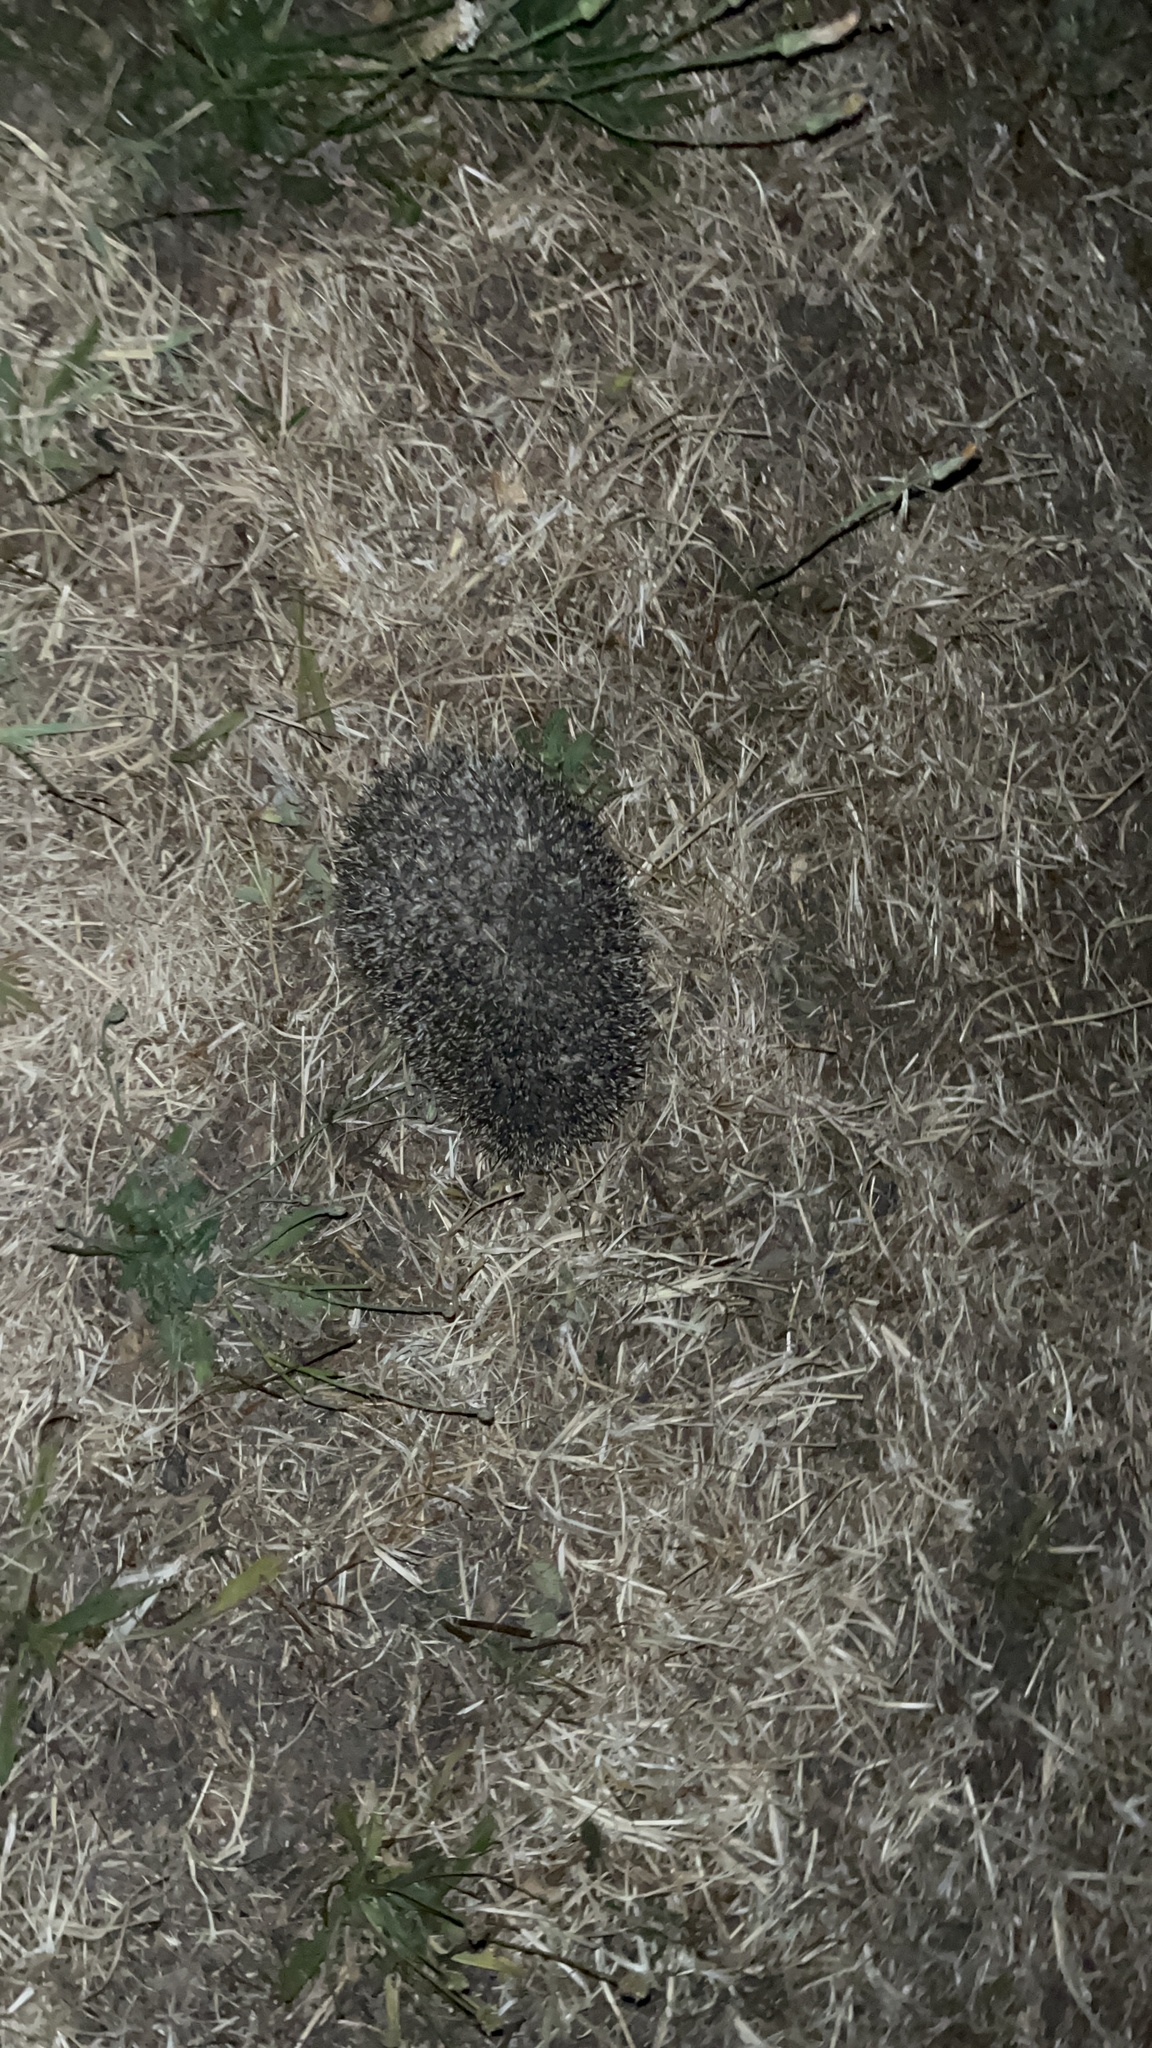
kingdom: Animalia
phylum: Chordata
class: Mammalia
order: Erinaceomorpha
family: Erinaceidae
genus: Erinaceus
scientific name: Erinaceus europaeus
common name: West european hedgehog
